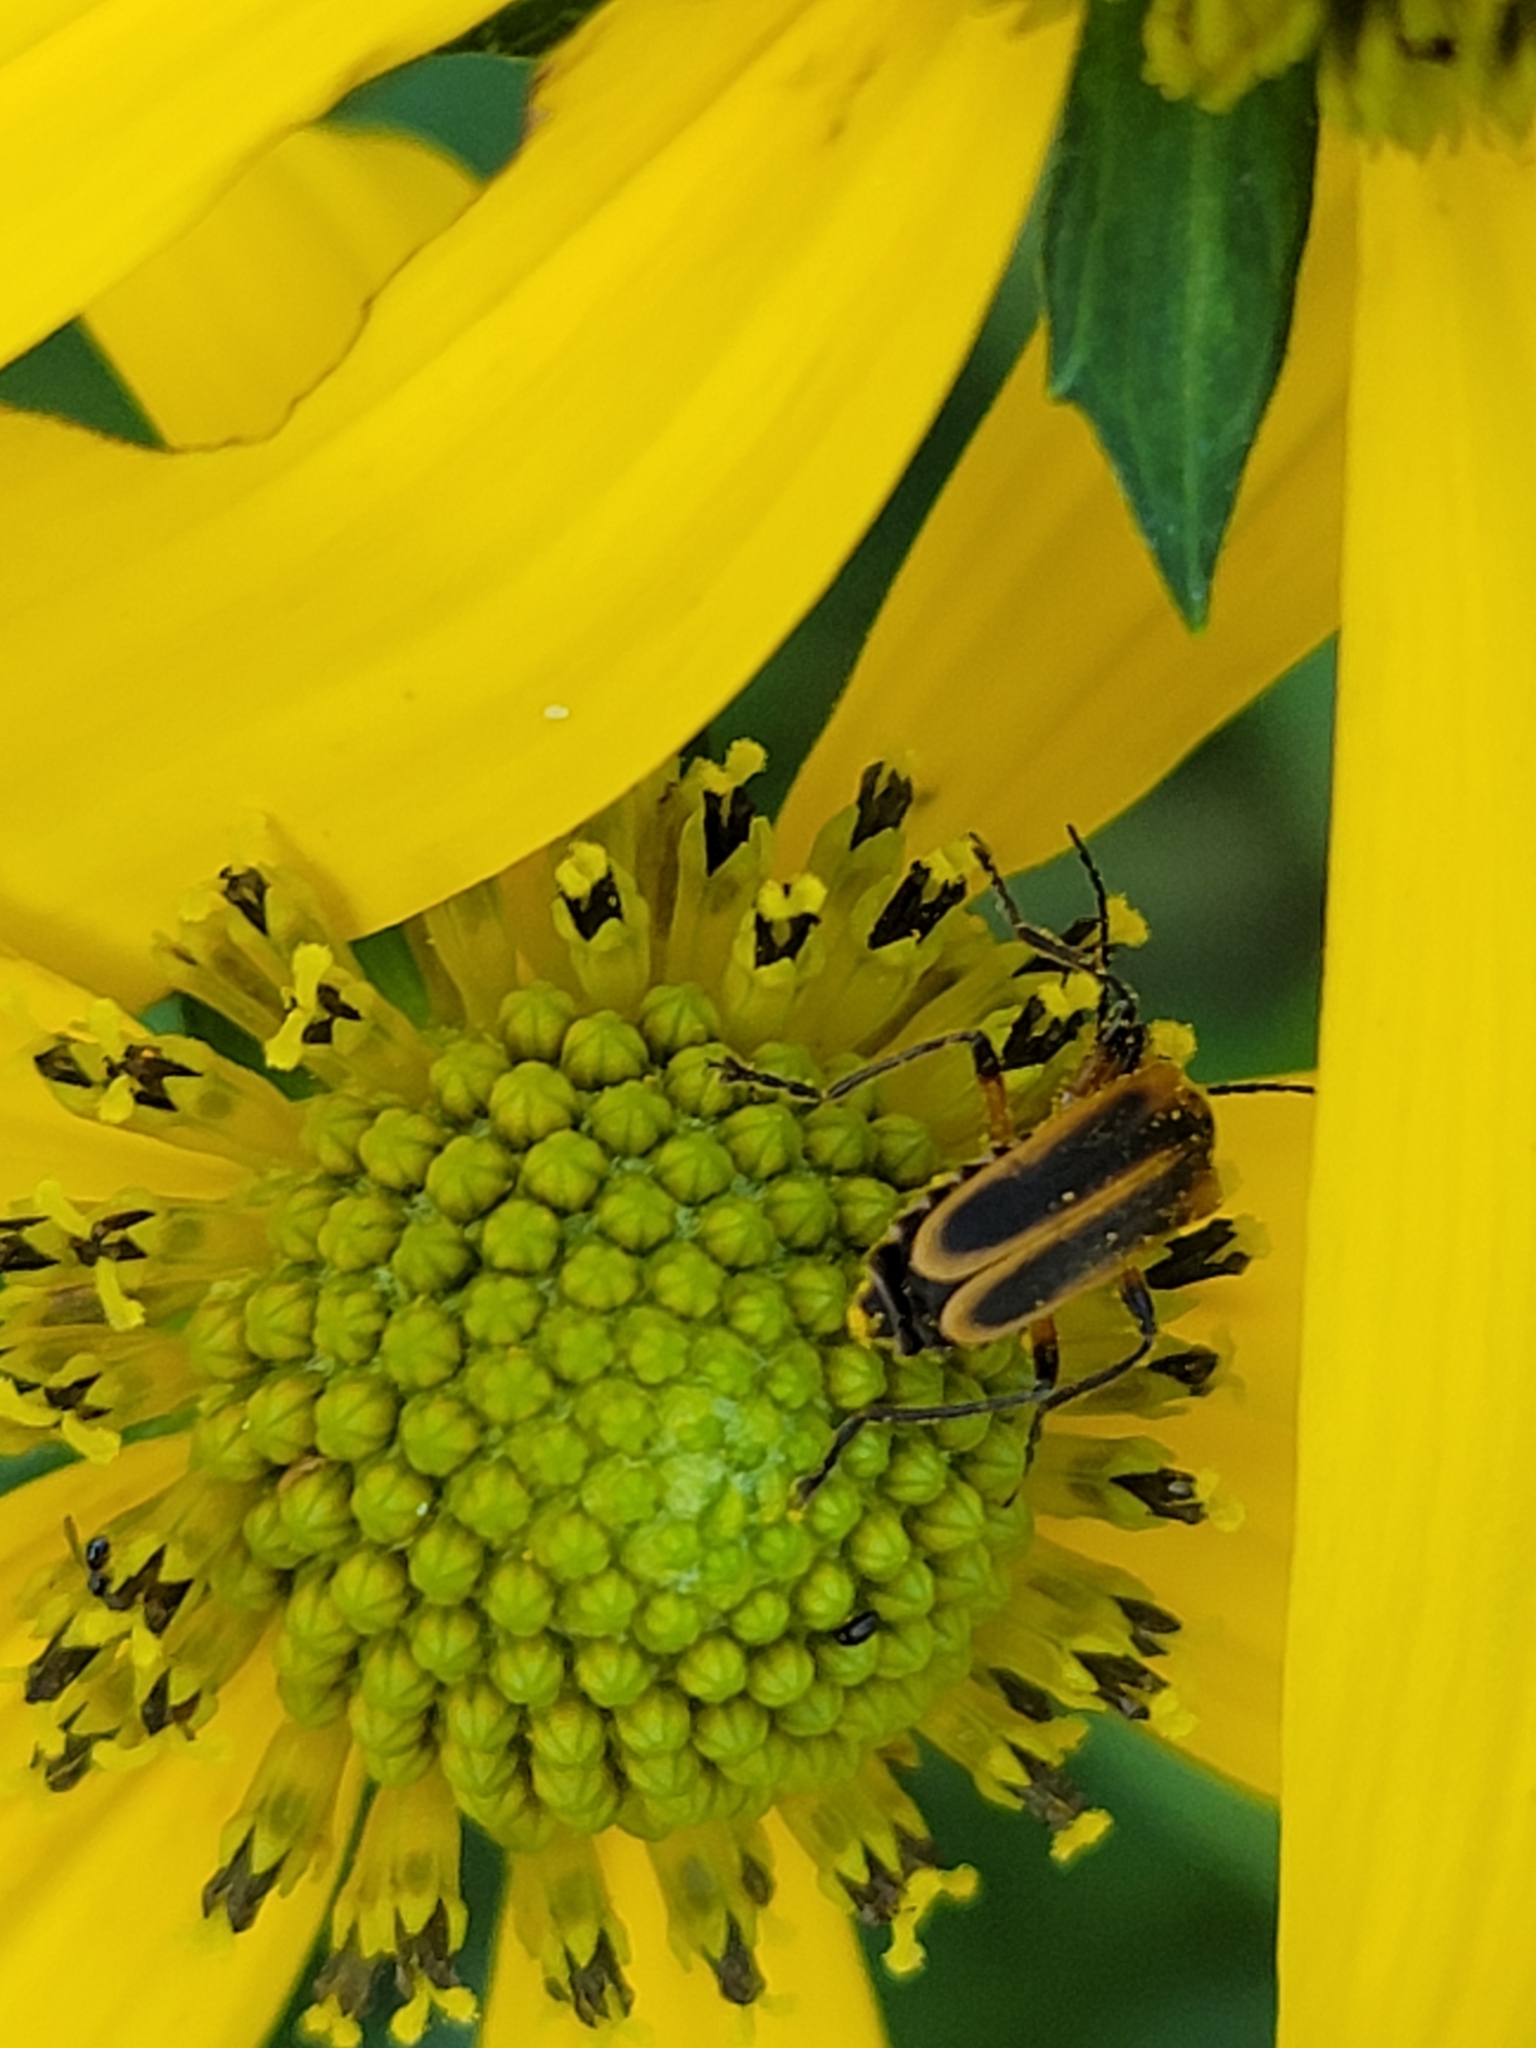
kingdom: Animalia
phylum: Arthropoda
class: Insecta
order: Coleoptera
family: Cantharidae
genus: Chauliognathus
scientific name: Chauliognathus marginatus
